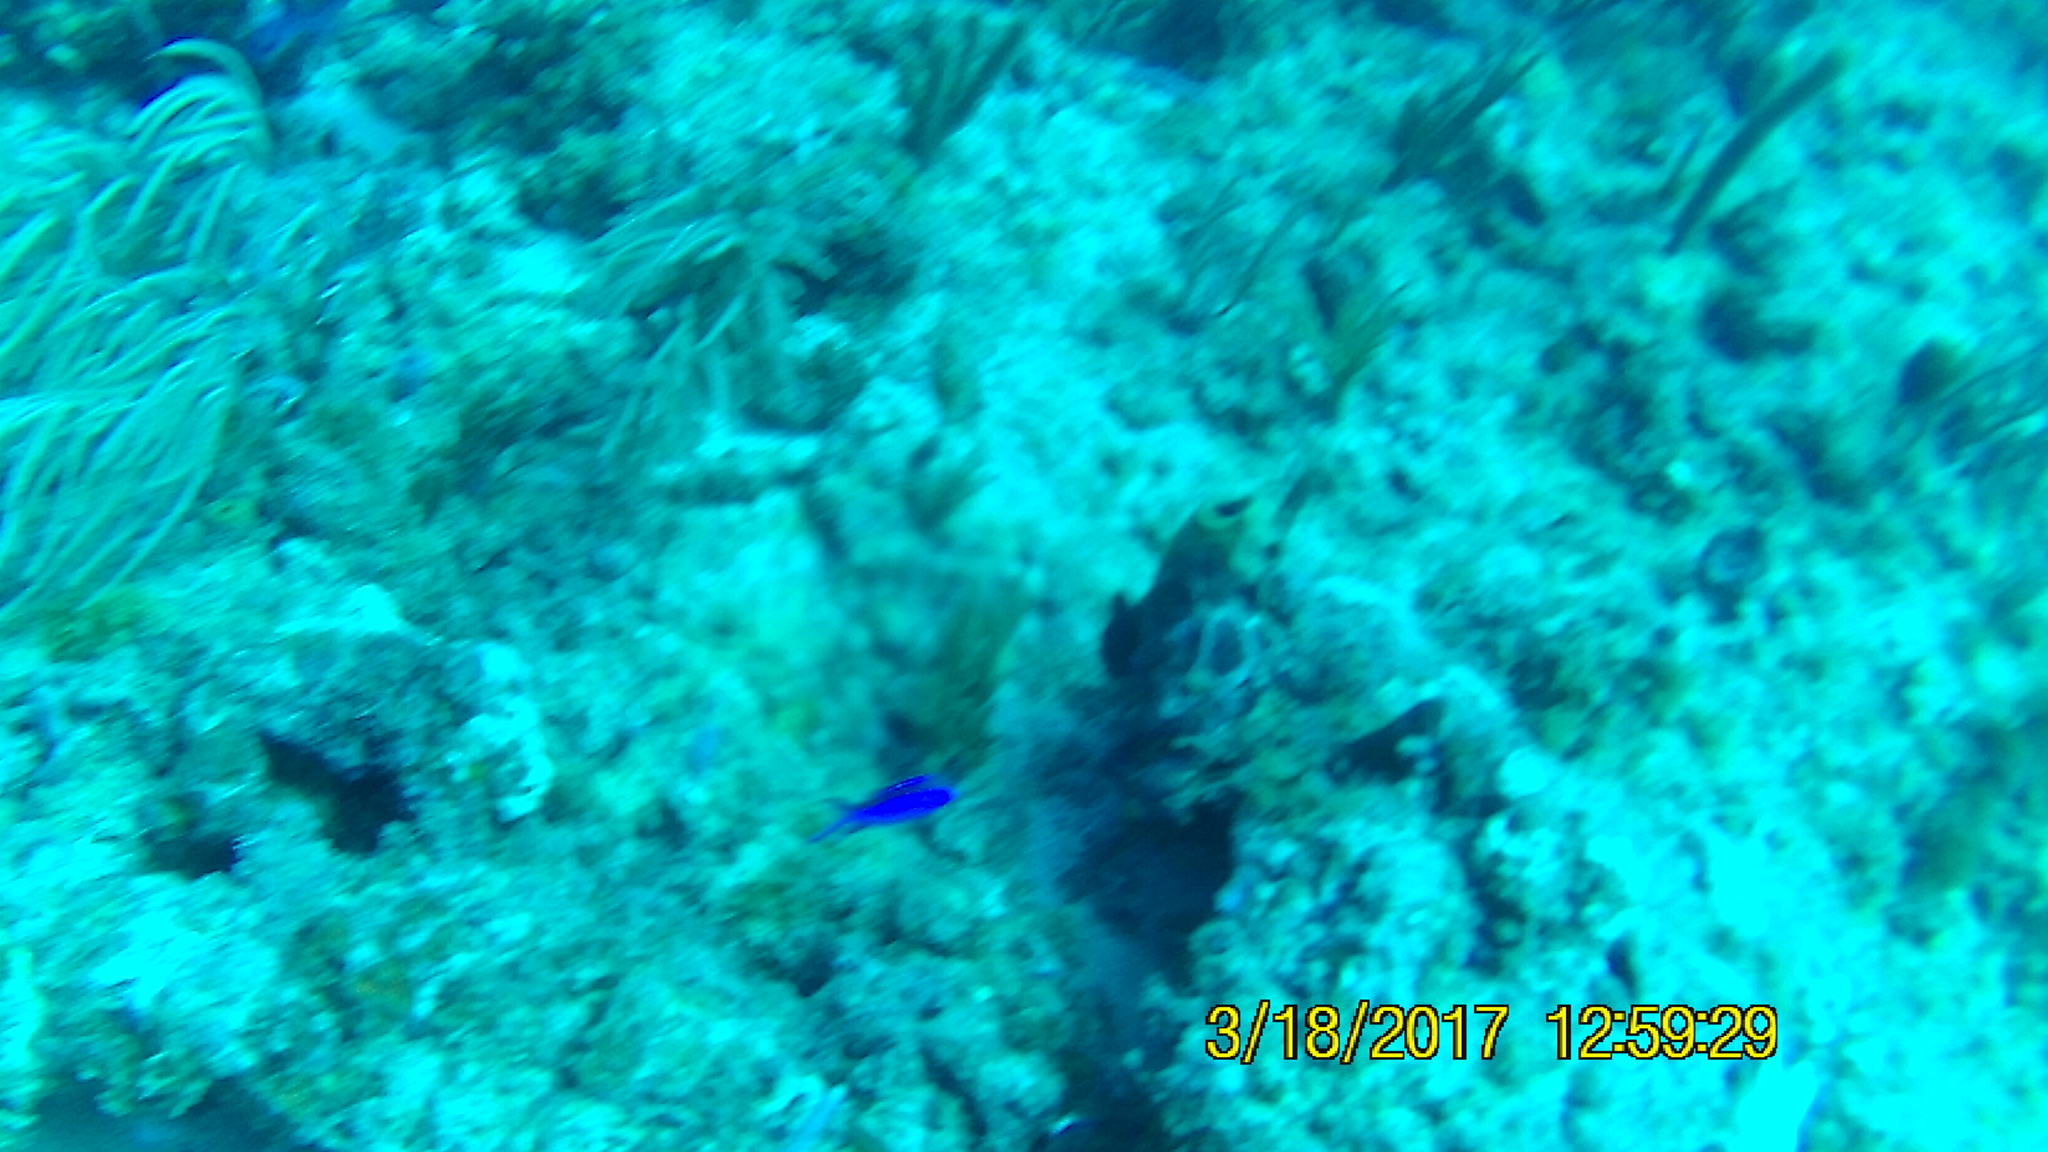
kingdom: Animalia
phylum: Chordata
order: Perciformes
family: Pomacentridae
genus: Chromis
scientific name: Chromis cyanea
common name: Blue chromis
